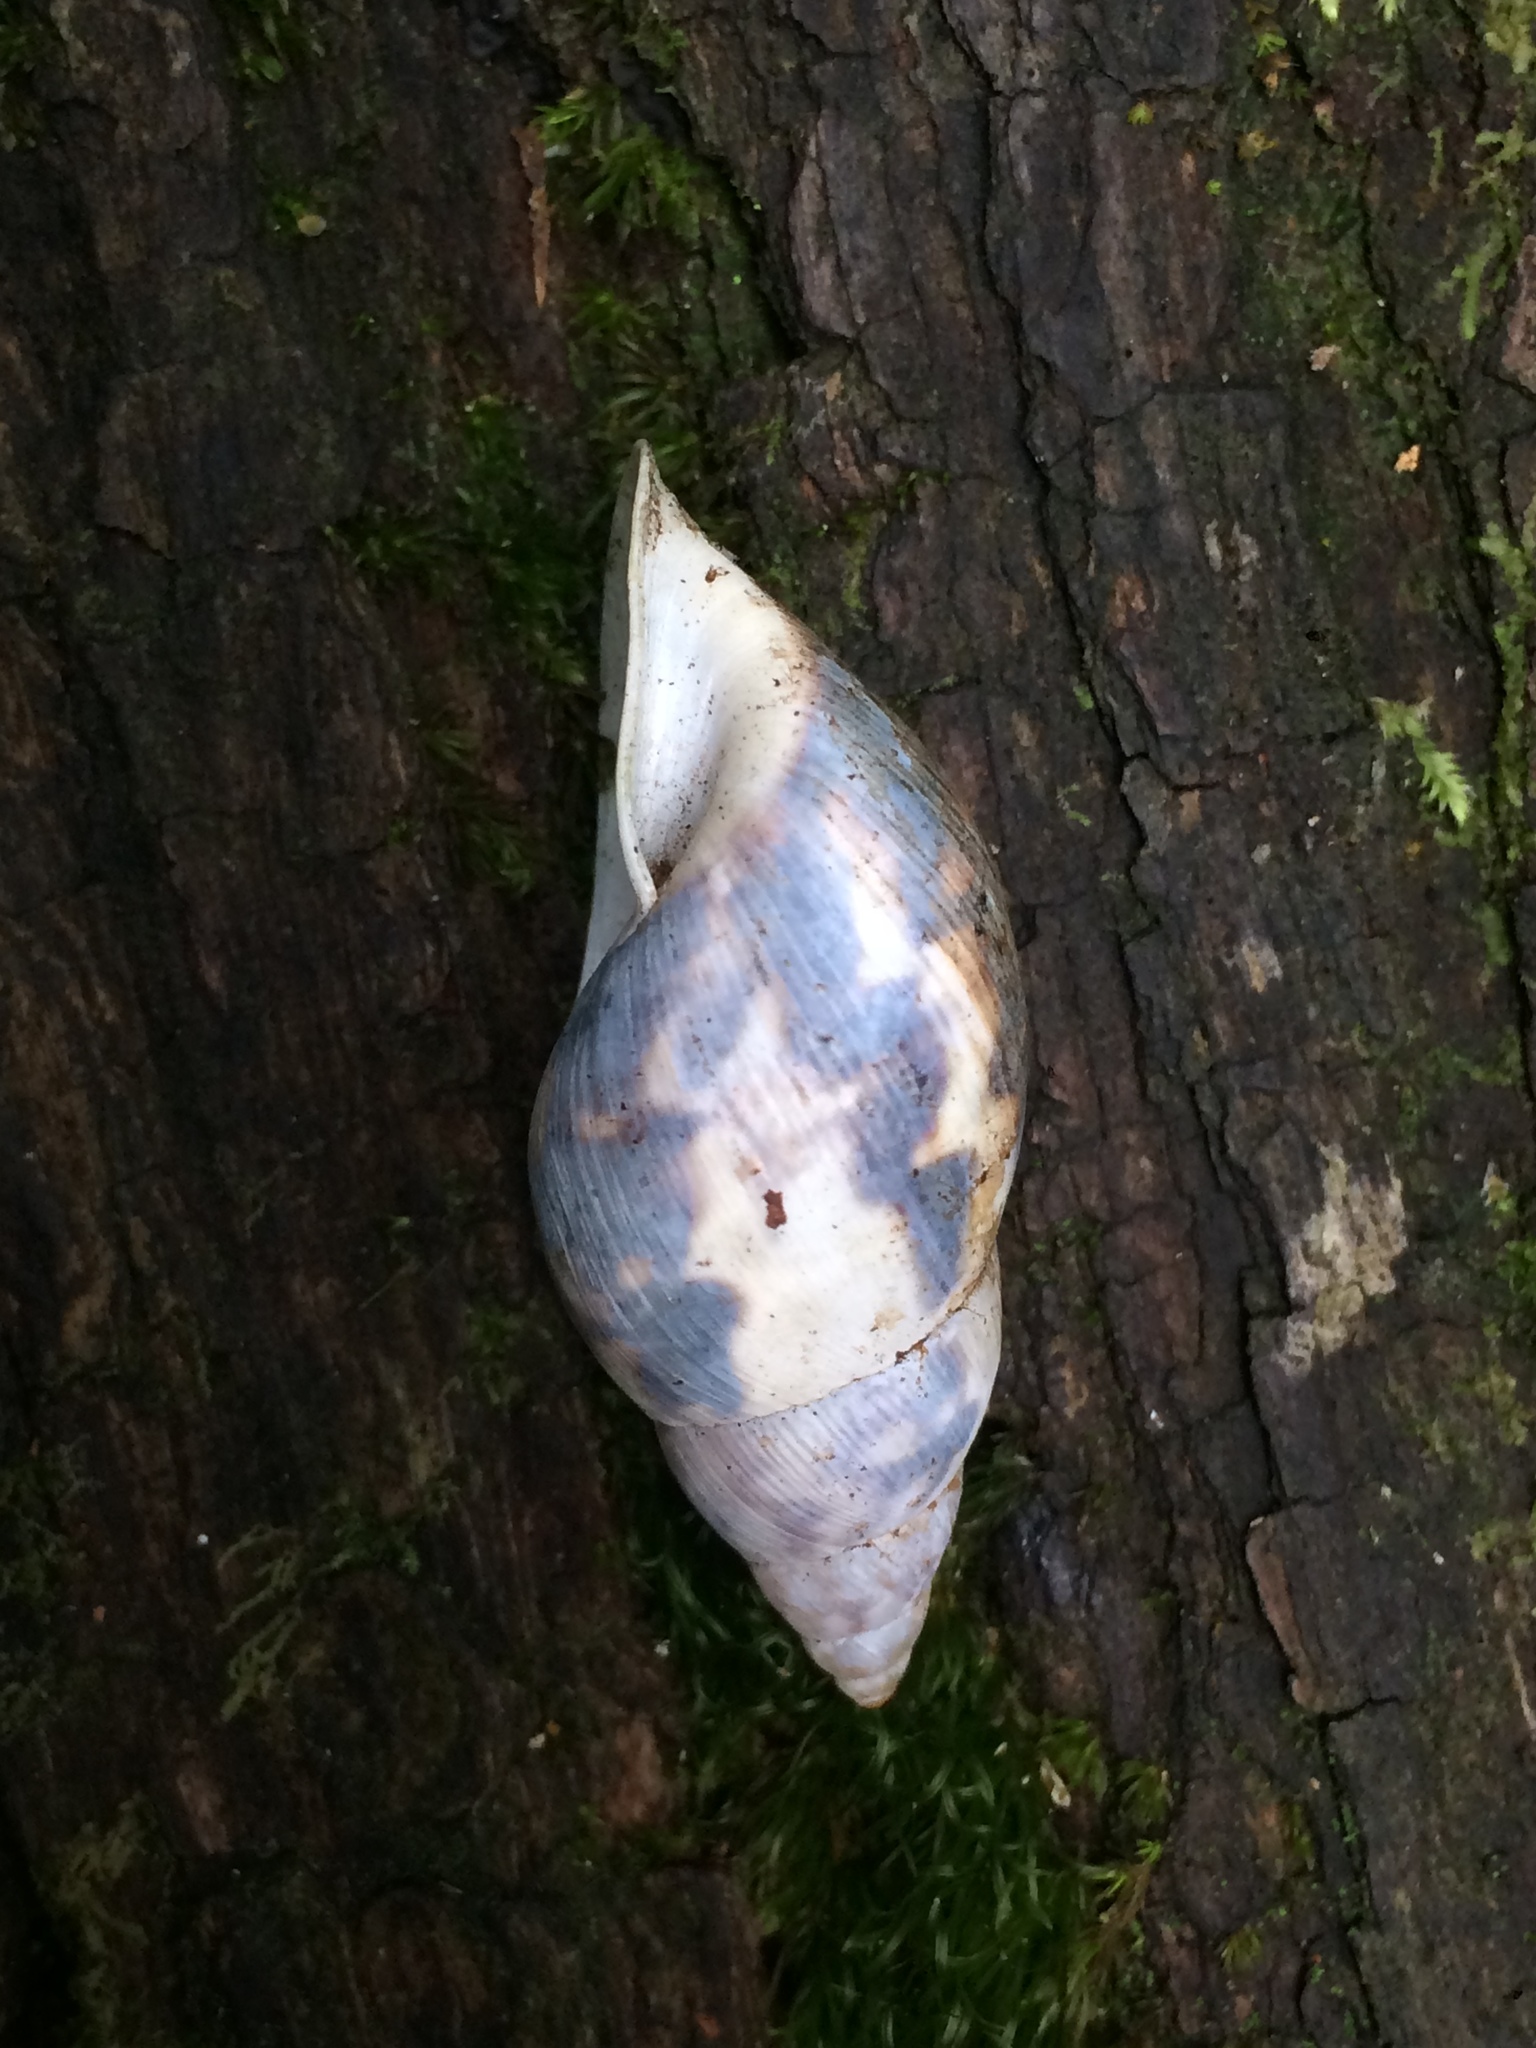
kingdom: Animalia
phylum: Mollusca
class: Gastropoda
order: Stylommatophora
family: Bulimulidae
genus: Drymaeus
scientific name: Drymaeus papyraceus
